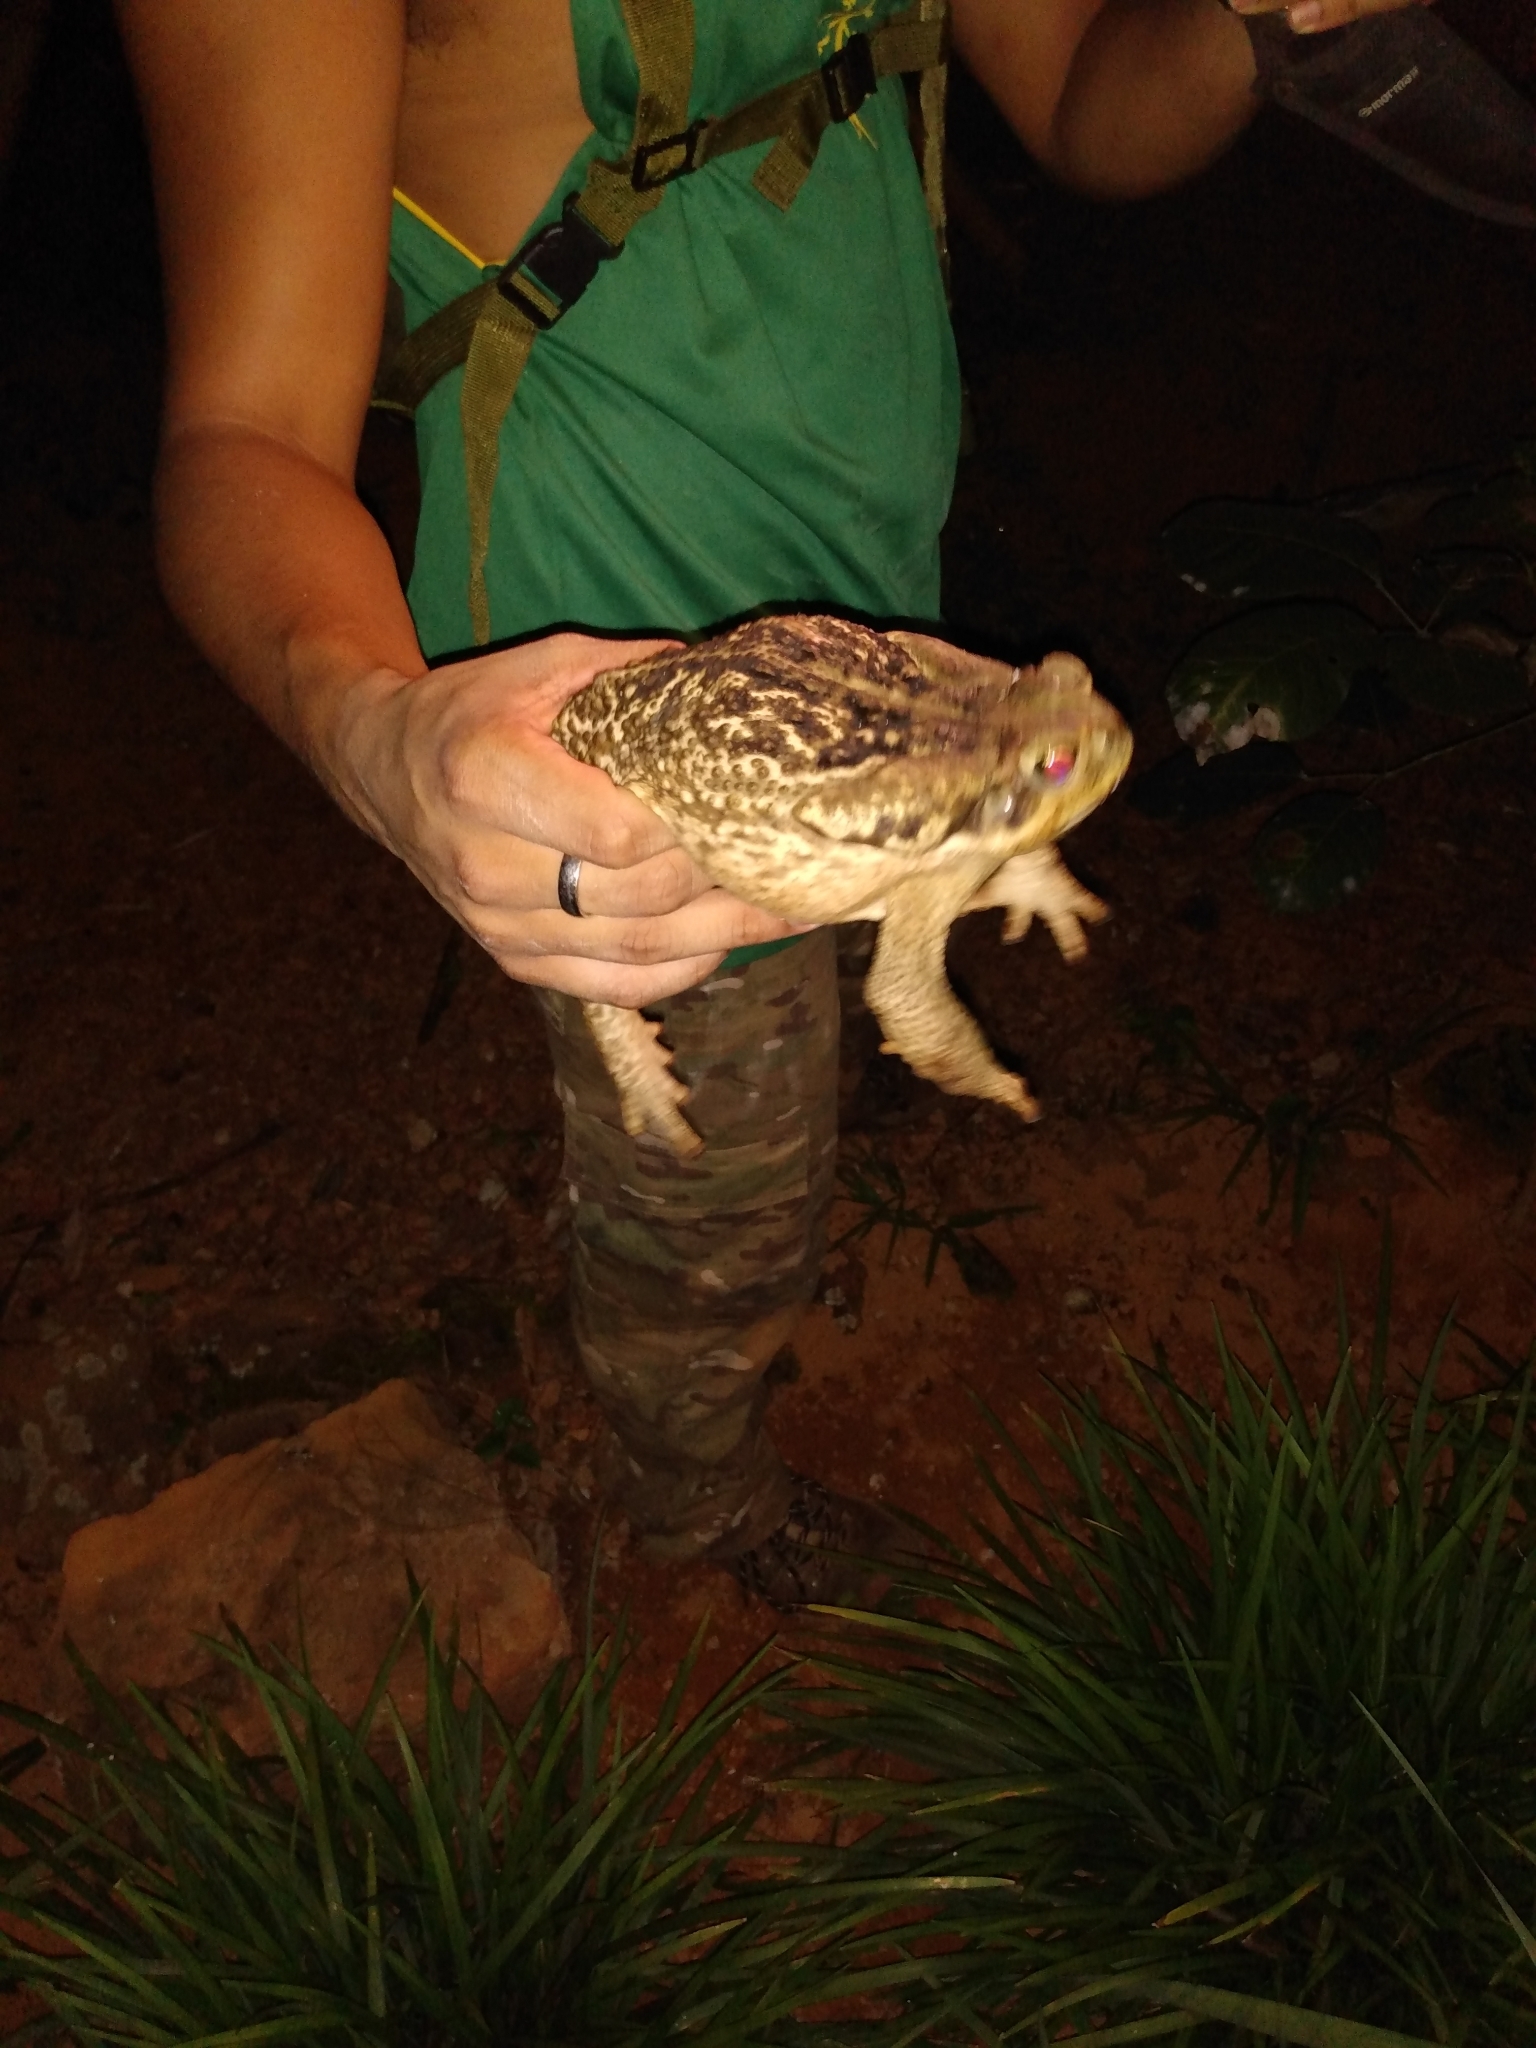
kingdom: Animalia
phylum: Chordata
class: Amphibia
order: Anura
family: Bufonidae
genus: Rhinella
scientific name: Rhinella diptycha
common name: Cope's toad
